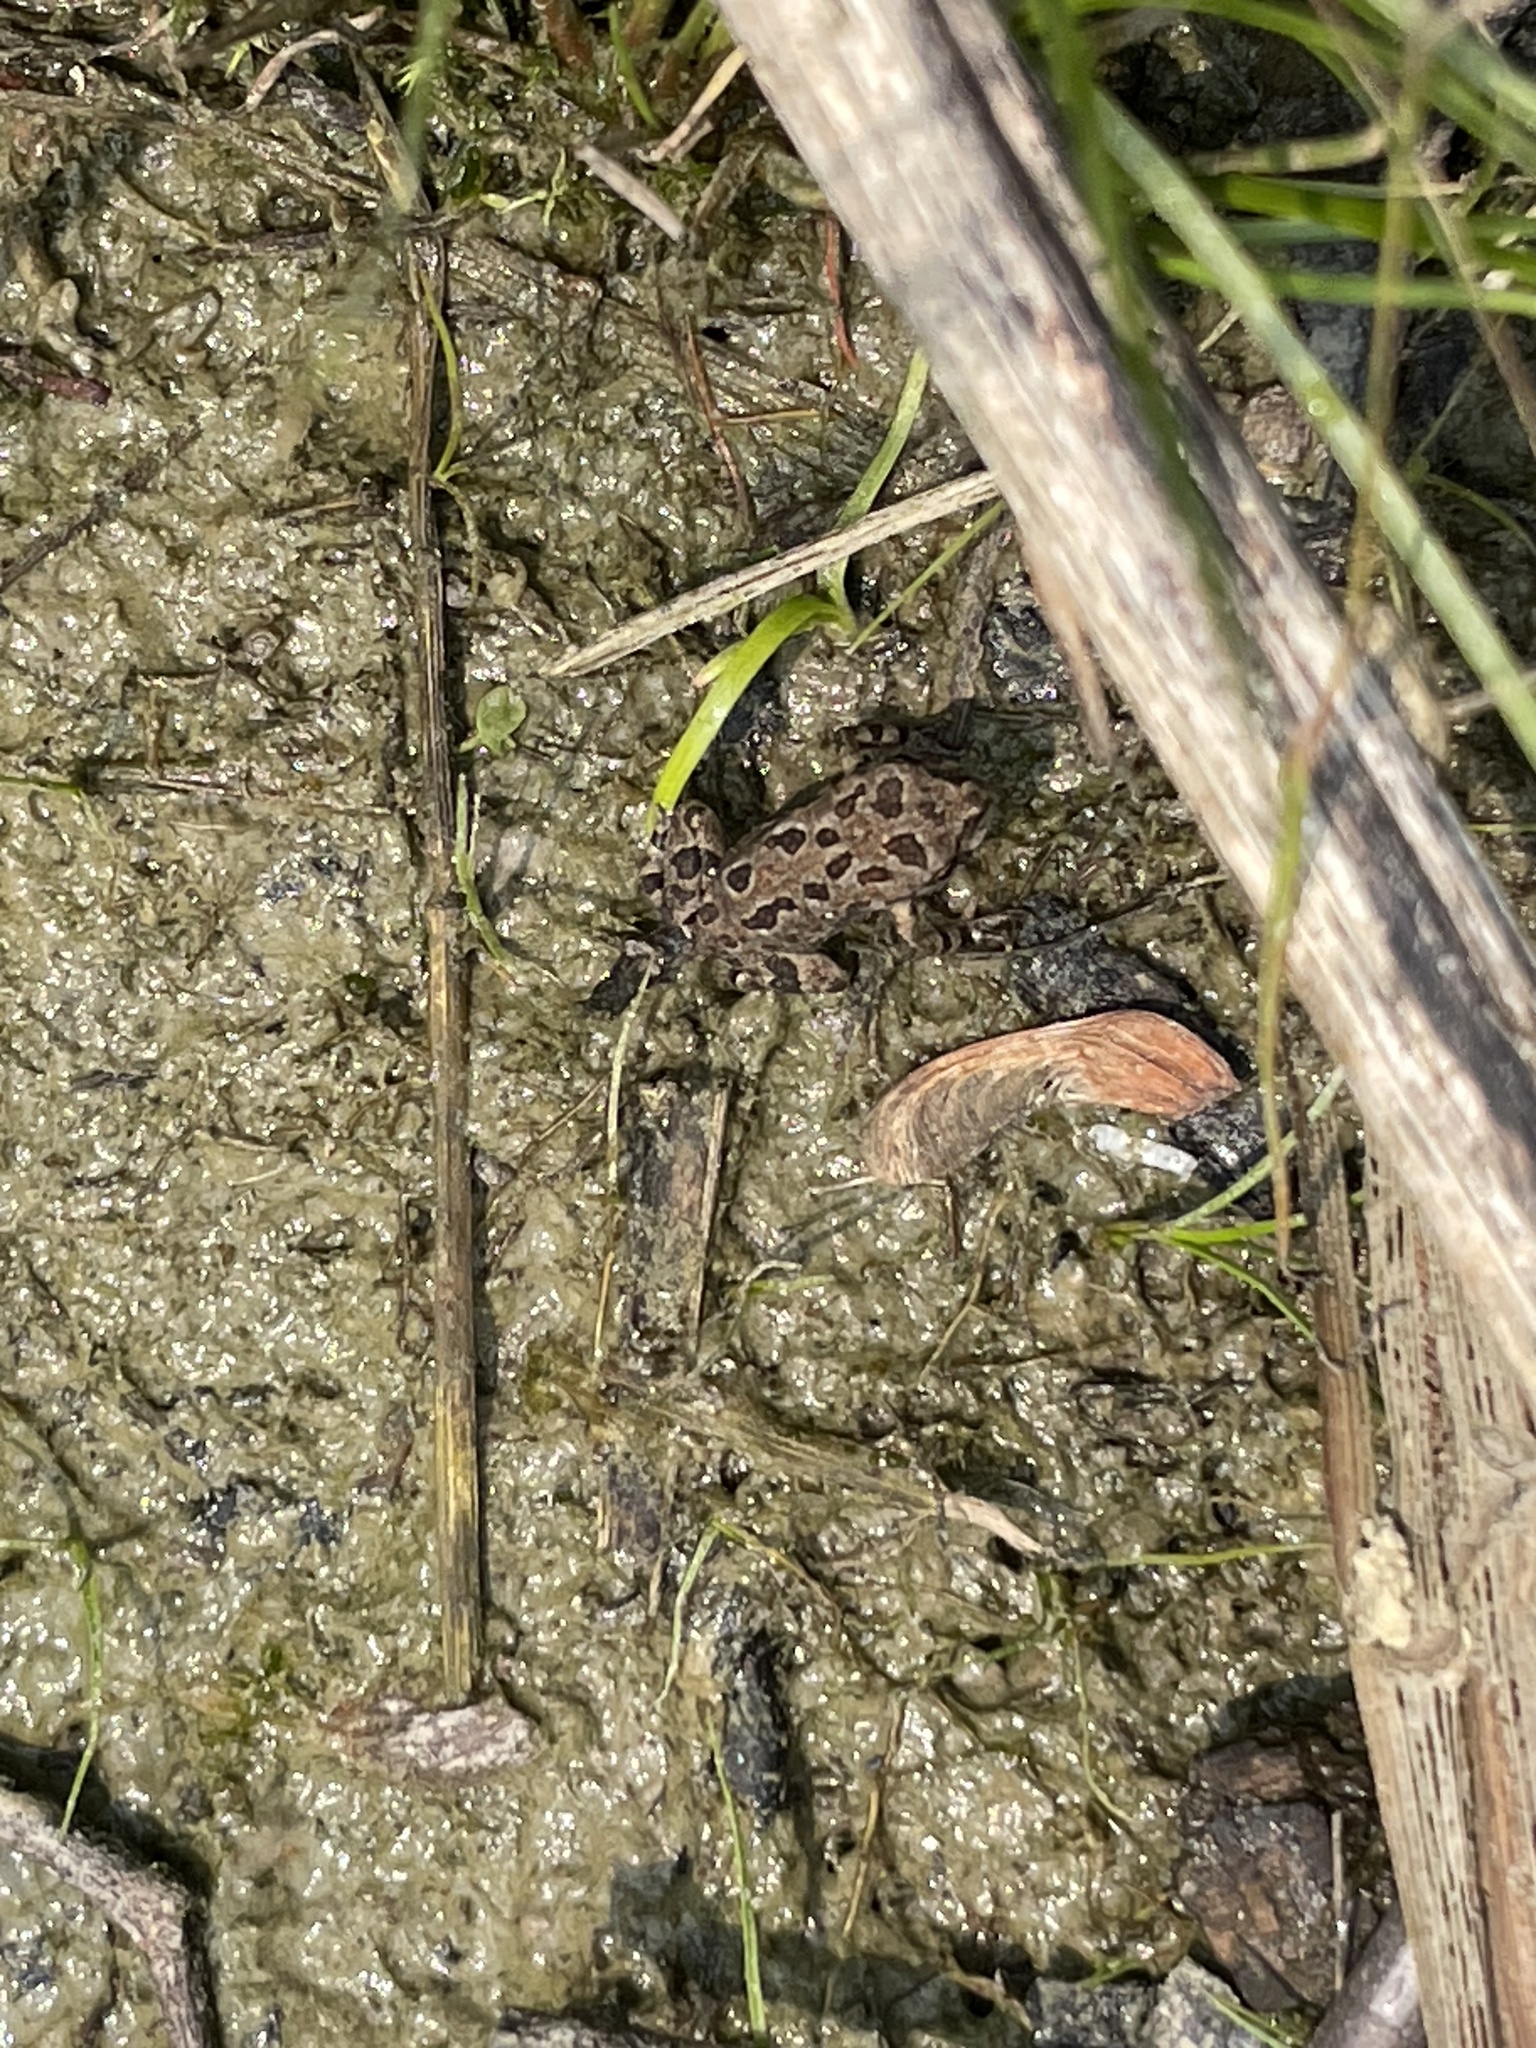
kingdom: Animalia
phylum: Chordata
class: Amphibia
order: Anura
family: Bufonidae
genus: Anaxyrus
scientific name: Anaxyrus fowleri
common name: Fowler's toad
